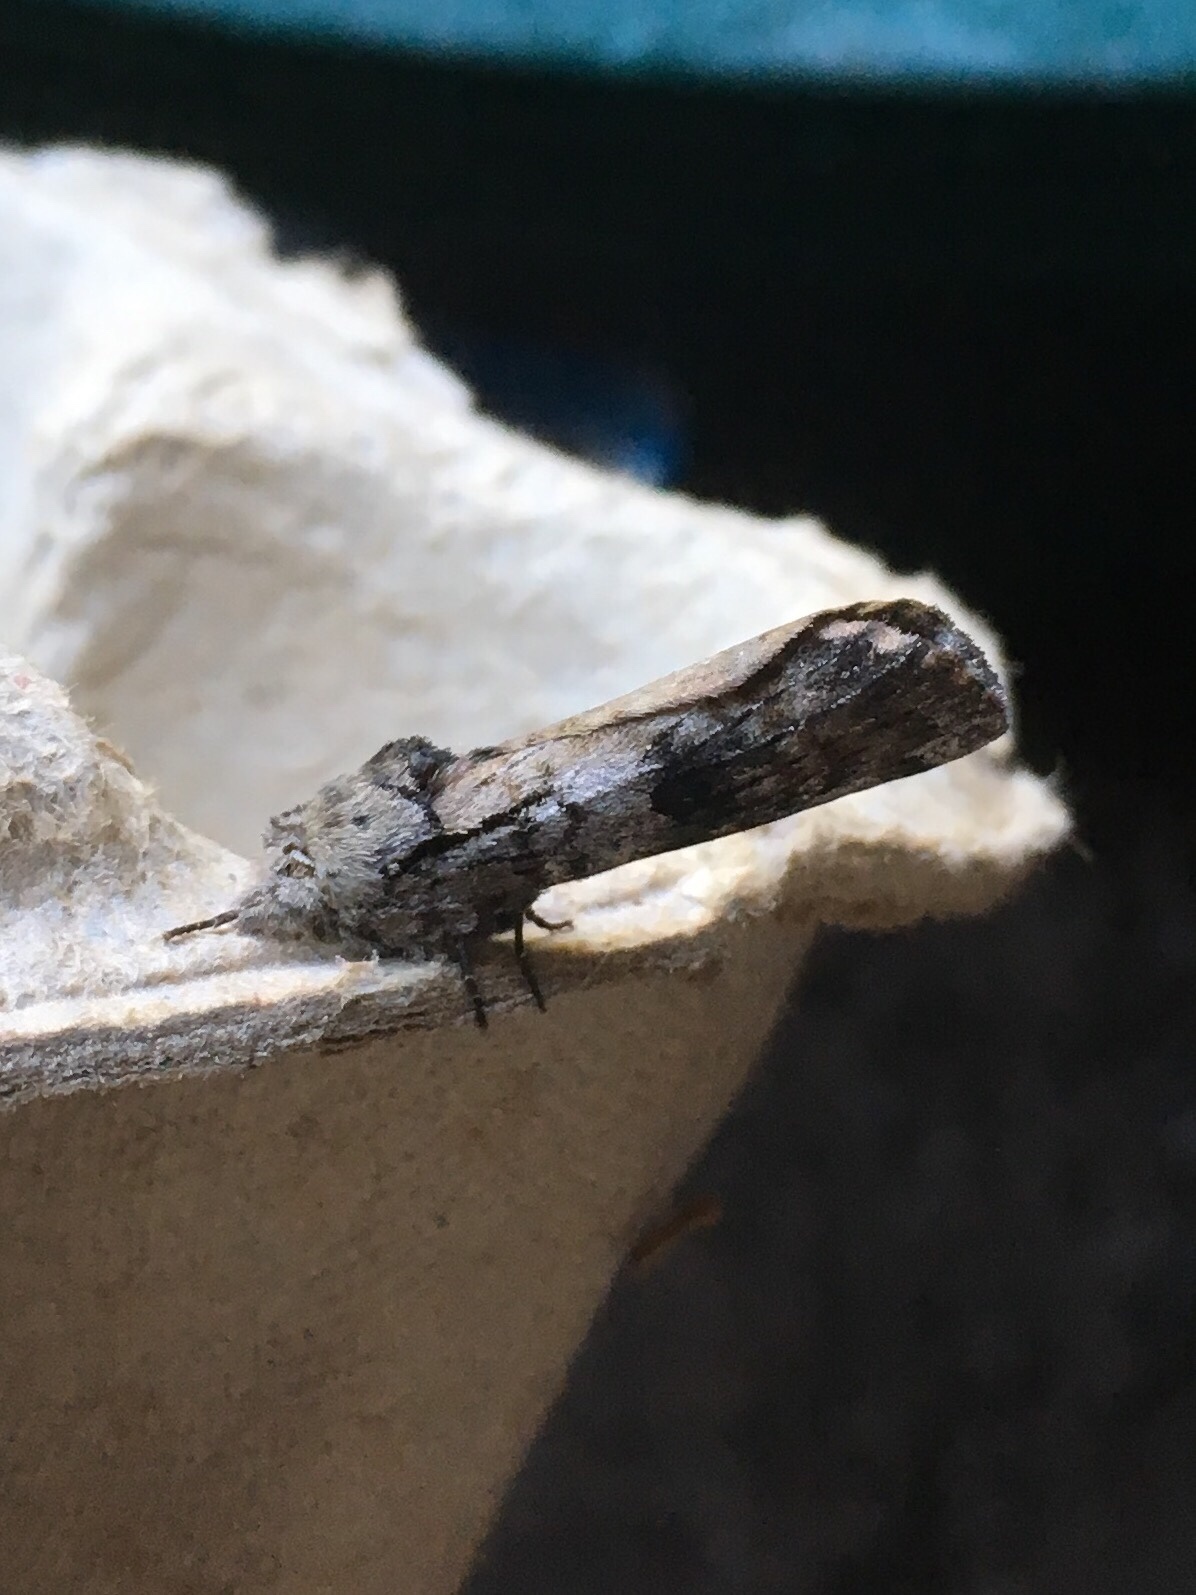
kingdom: Animalia
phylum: Arthropoda
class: Insecta
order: Lepidoptera
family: Notodontidae
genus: Schizura
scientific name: Schizura
